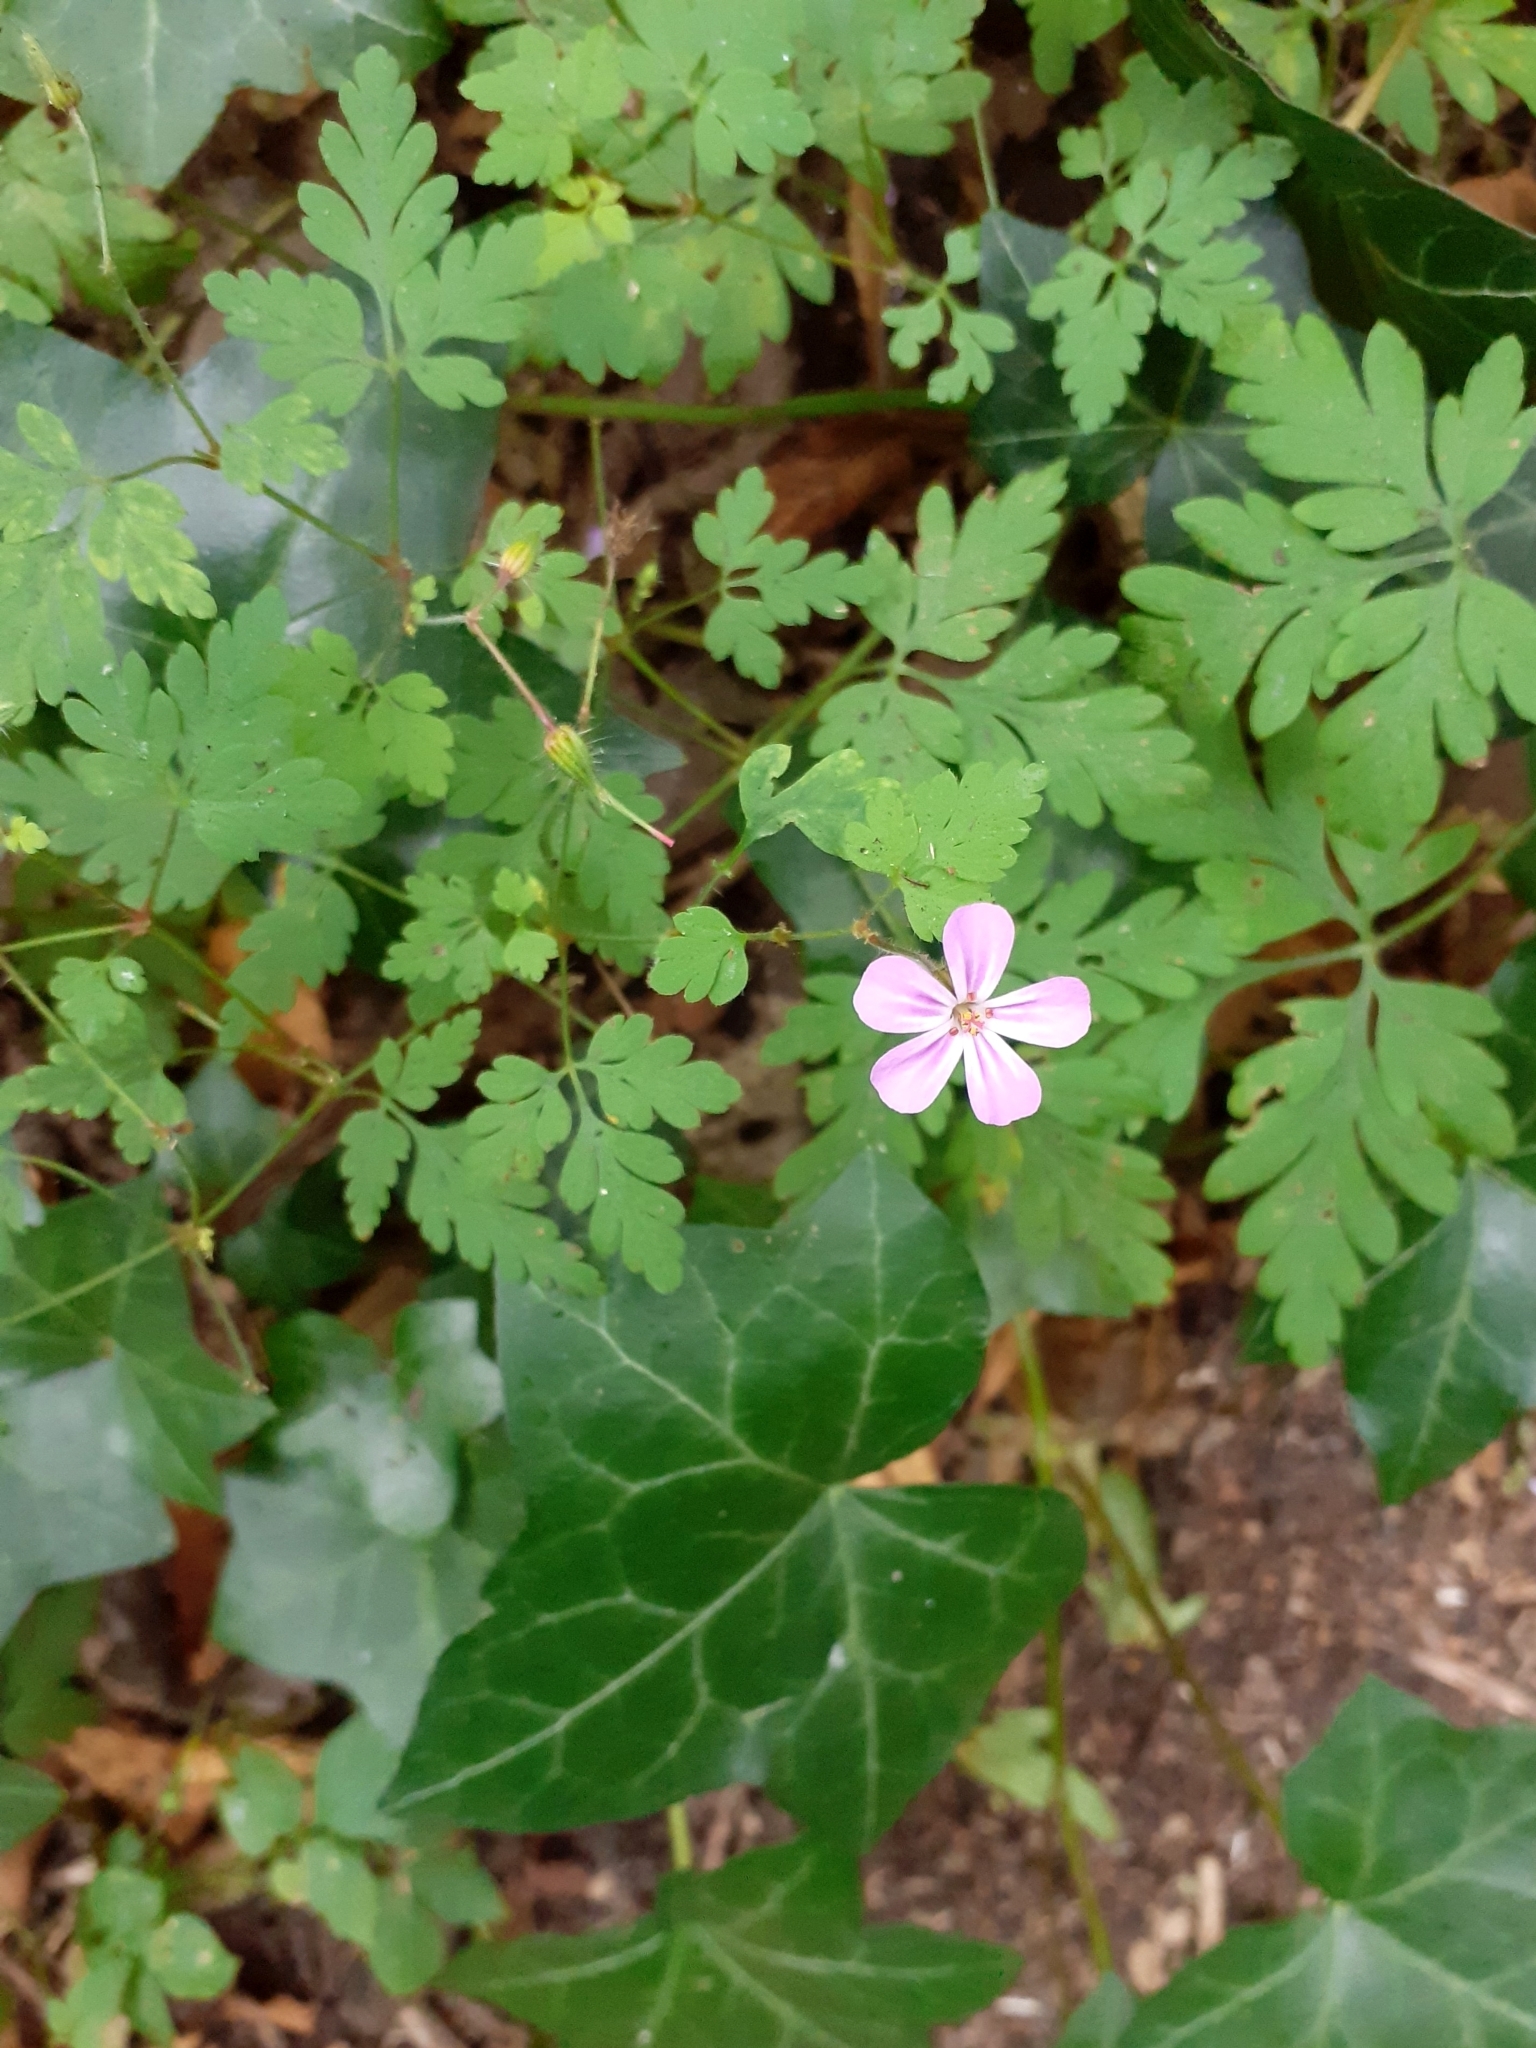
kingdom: Plantae
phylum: Tracheophyta
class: Magnoliopsida
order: Geraniales
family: Geraniaceae
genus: Geranium
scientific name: Geranium robertianum
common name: Herb-robert
